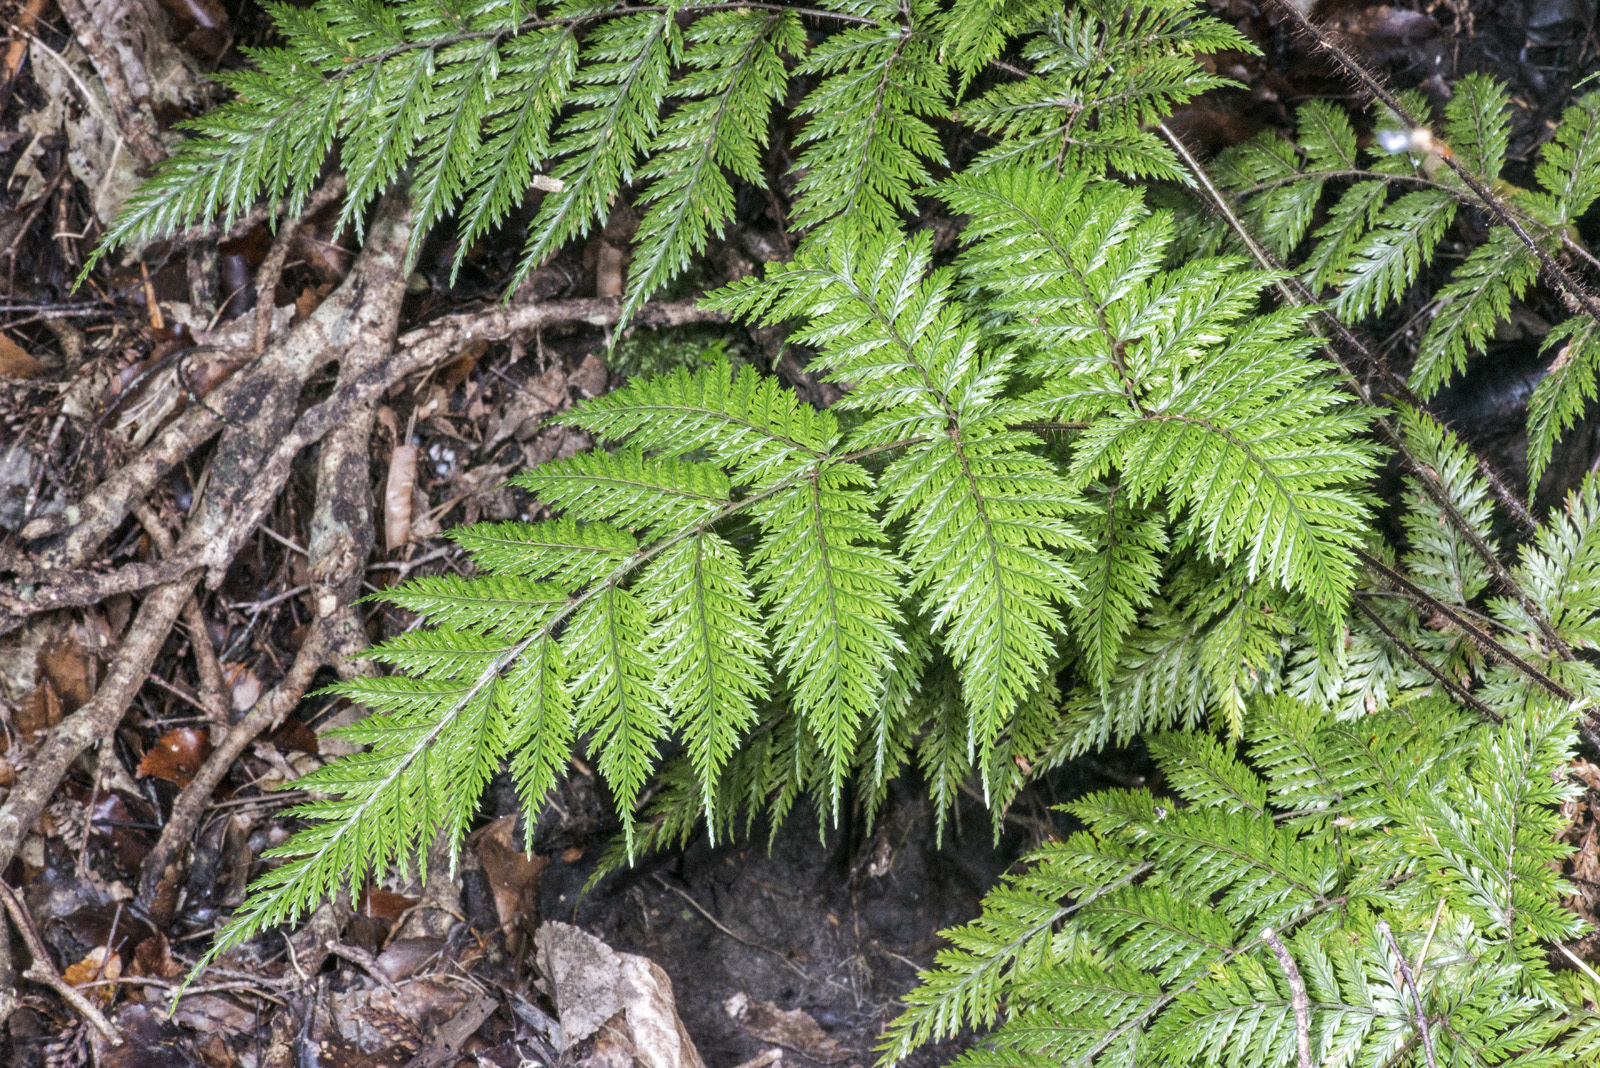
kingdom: Plantae
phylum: Tracheophyta
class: Polypodiopsida
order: Polypodiales
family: Dryopteridaceae
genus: Lastreopsis
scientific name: Lastreopsis hispida
